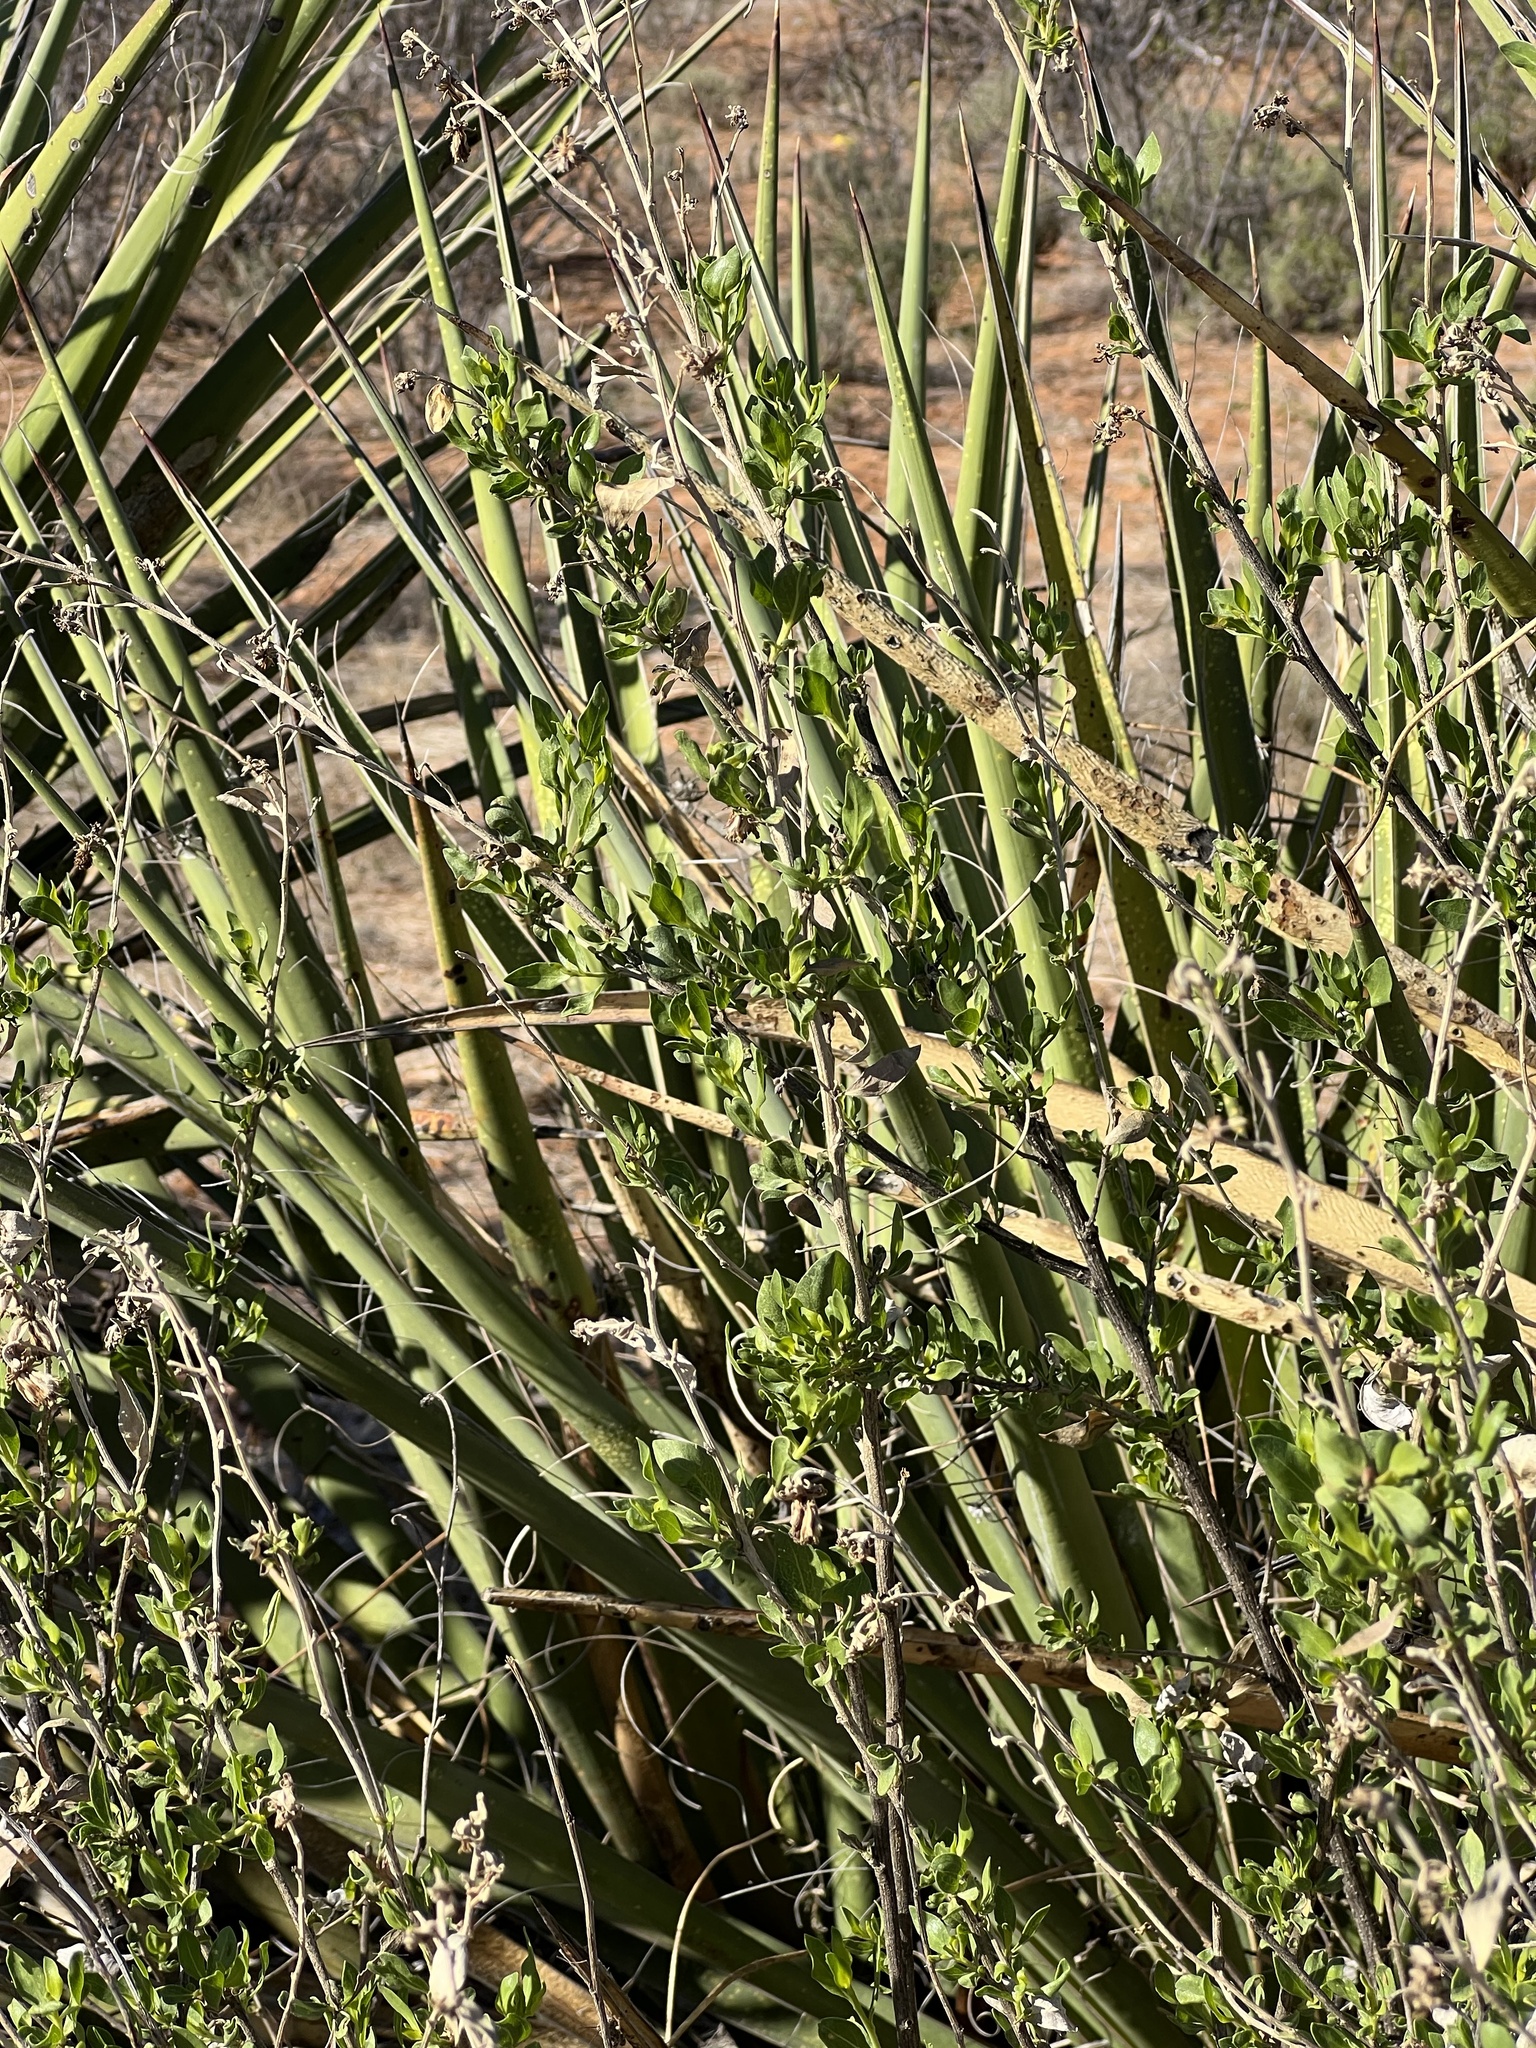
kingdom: Plantae
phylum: Tracheophyta
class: Magnoliopsida
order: Asterales
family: Asteraceae
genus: Flourensia
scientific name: Flourensia cernua
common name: Varnishbush
